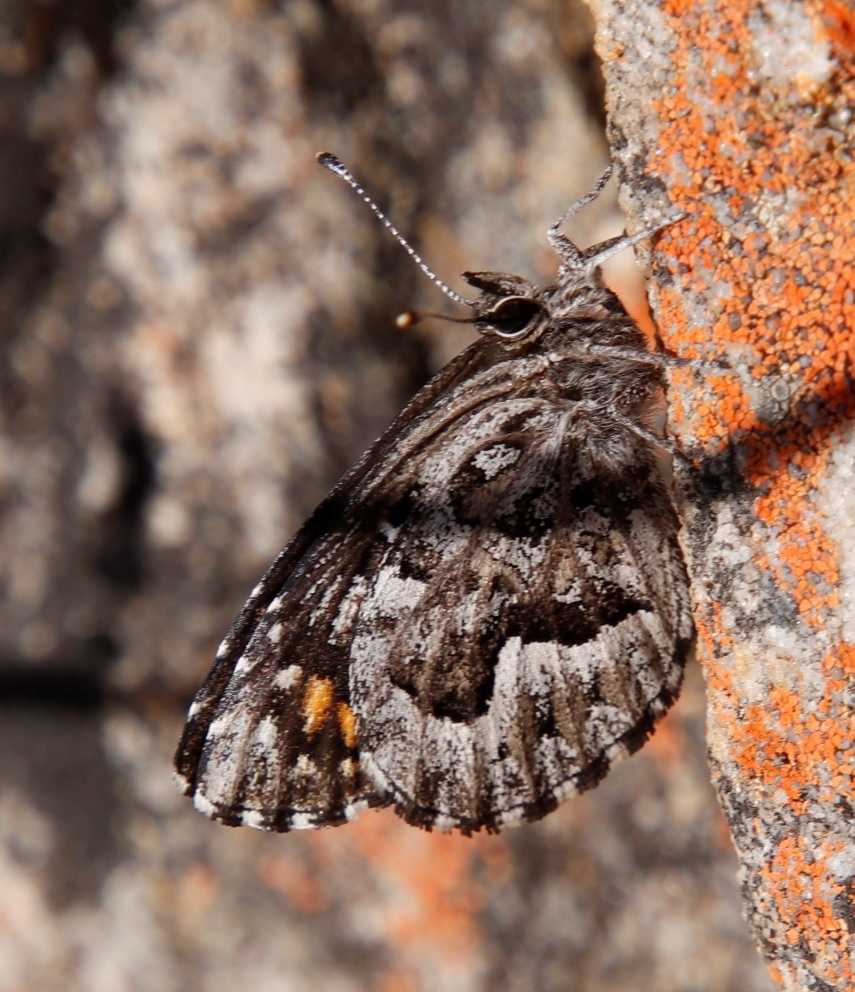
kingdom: Animalia
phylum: Arthropoda
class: Insecta
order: Lepidoptera
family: Lycaenidae
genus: Durbaniopsis
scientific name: Durbaniopsis saga
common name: Boland rocksitter
